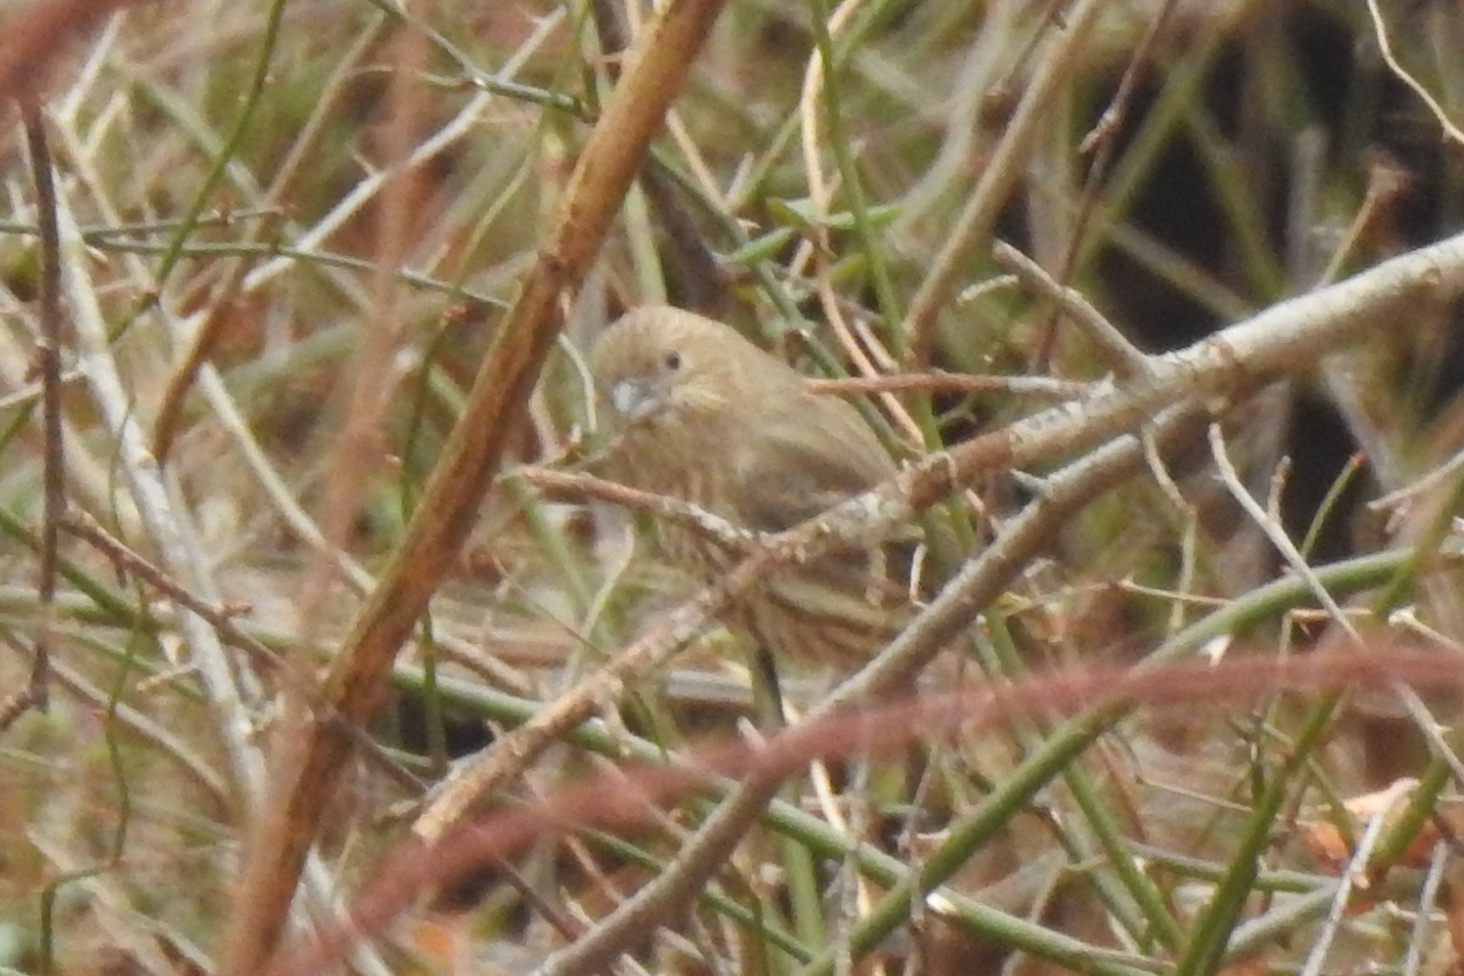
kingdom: Animalia
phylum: Chordata
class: Aves
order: Passeriformes
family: Fringillidae
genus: Haemorhous
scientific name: Haemorhous mexicanus
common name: House finch
